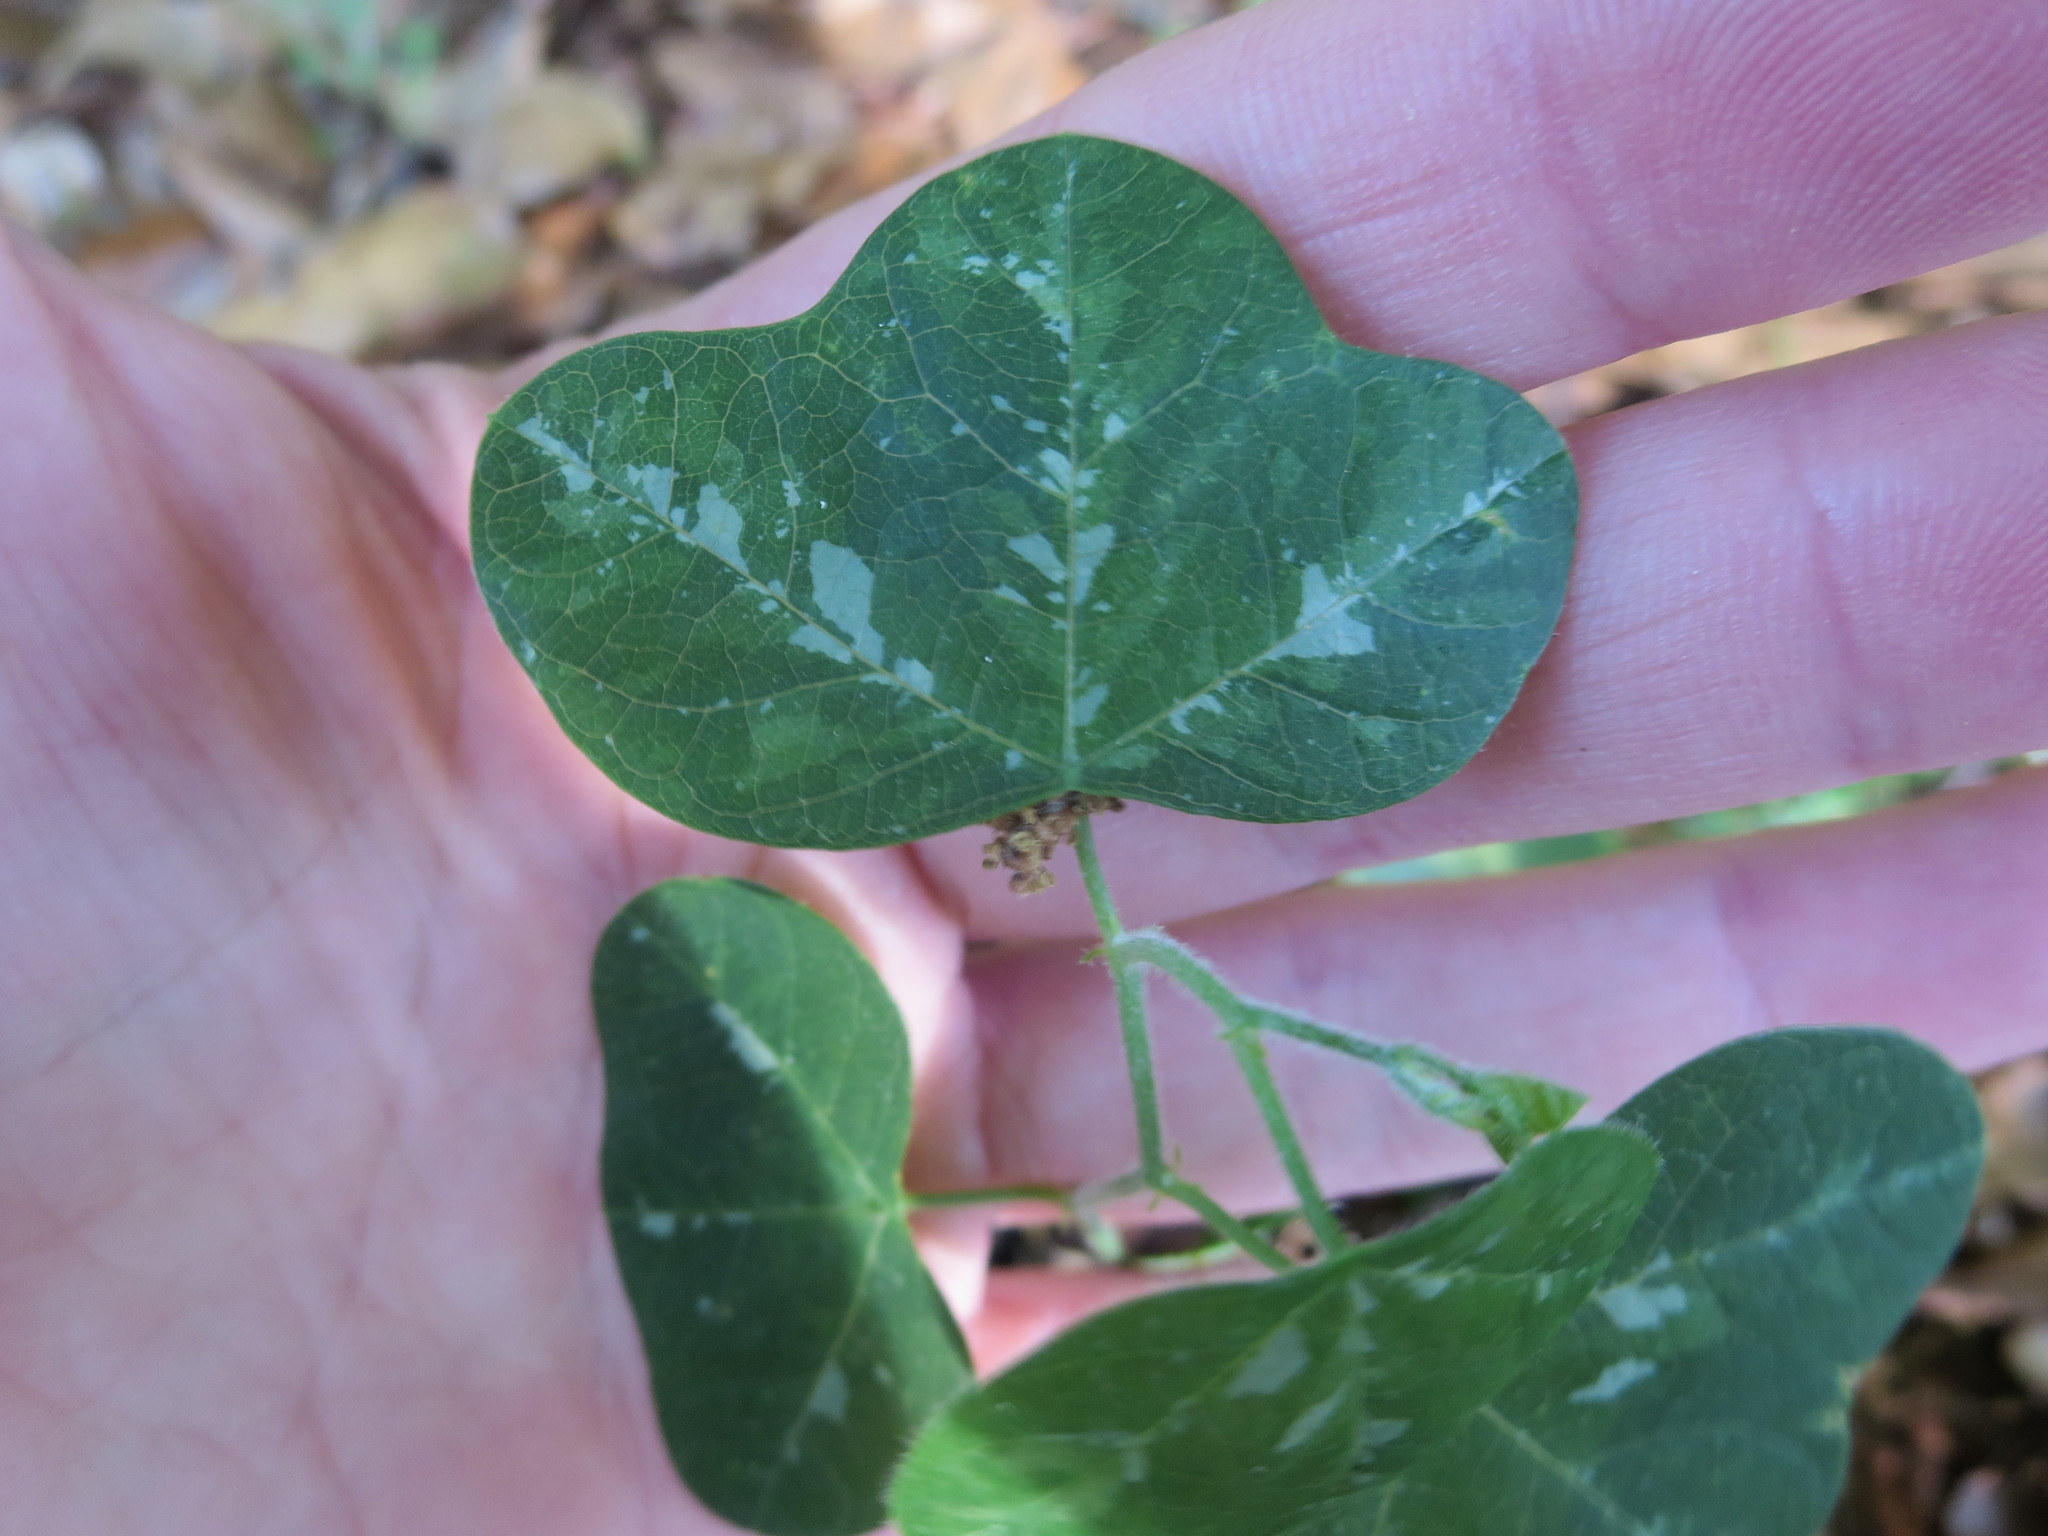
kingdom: Plantae
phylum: Tracheophyta
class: Magnoliopsida
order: Malpighiales
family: Passifloraceae
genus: Passiflora
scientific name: Passiflora lutea
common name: Yellow passionflower
